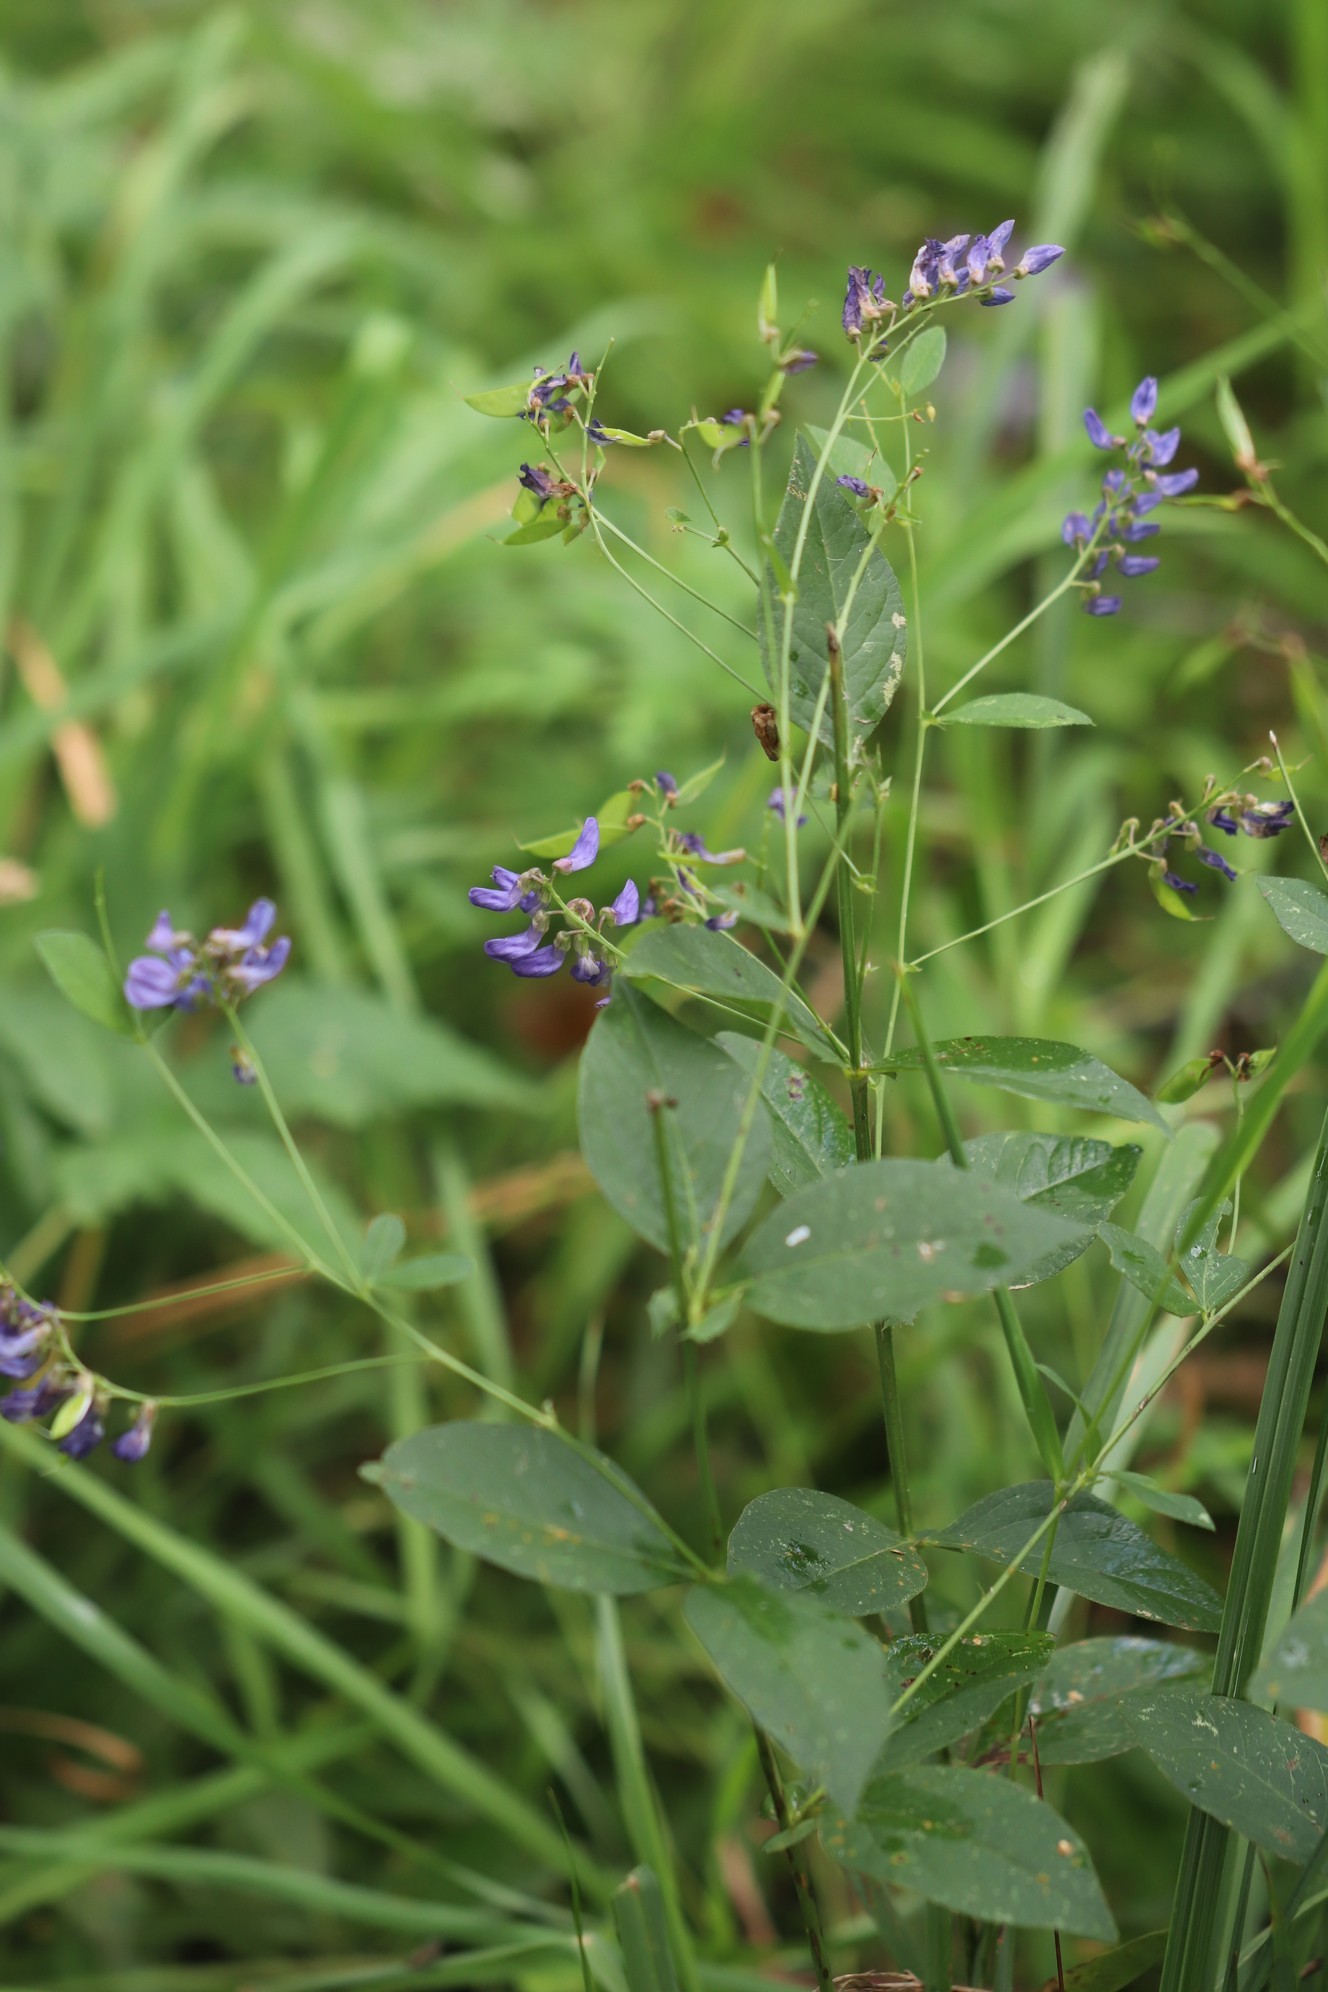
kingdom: Plantae
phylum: Tracheophyta
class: Magnoliopsida
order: Fabales
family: Fabaceae
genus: Vicia
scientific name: Vicia unijuga
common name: Two-leaf vetch
